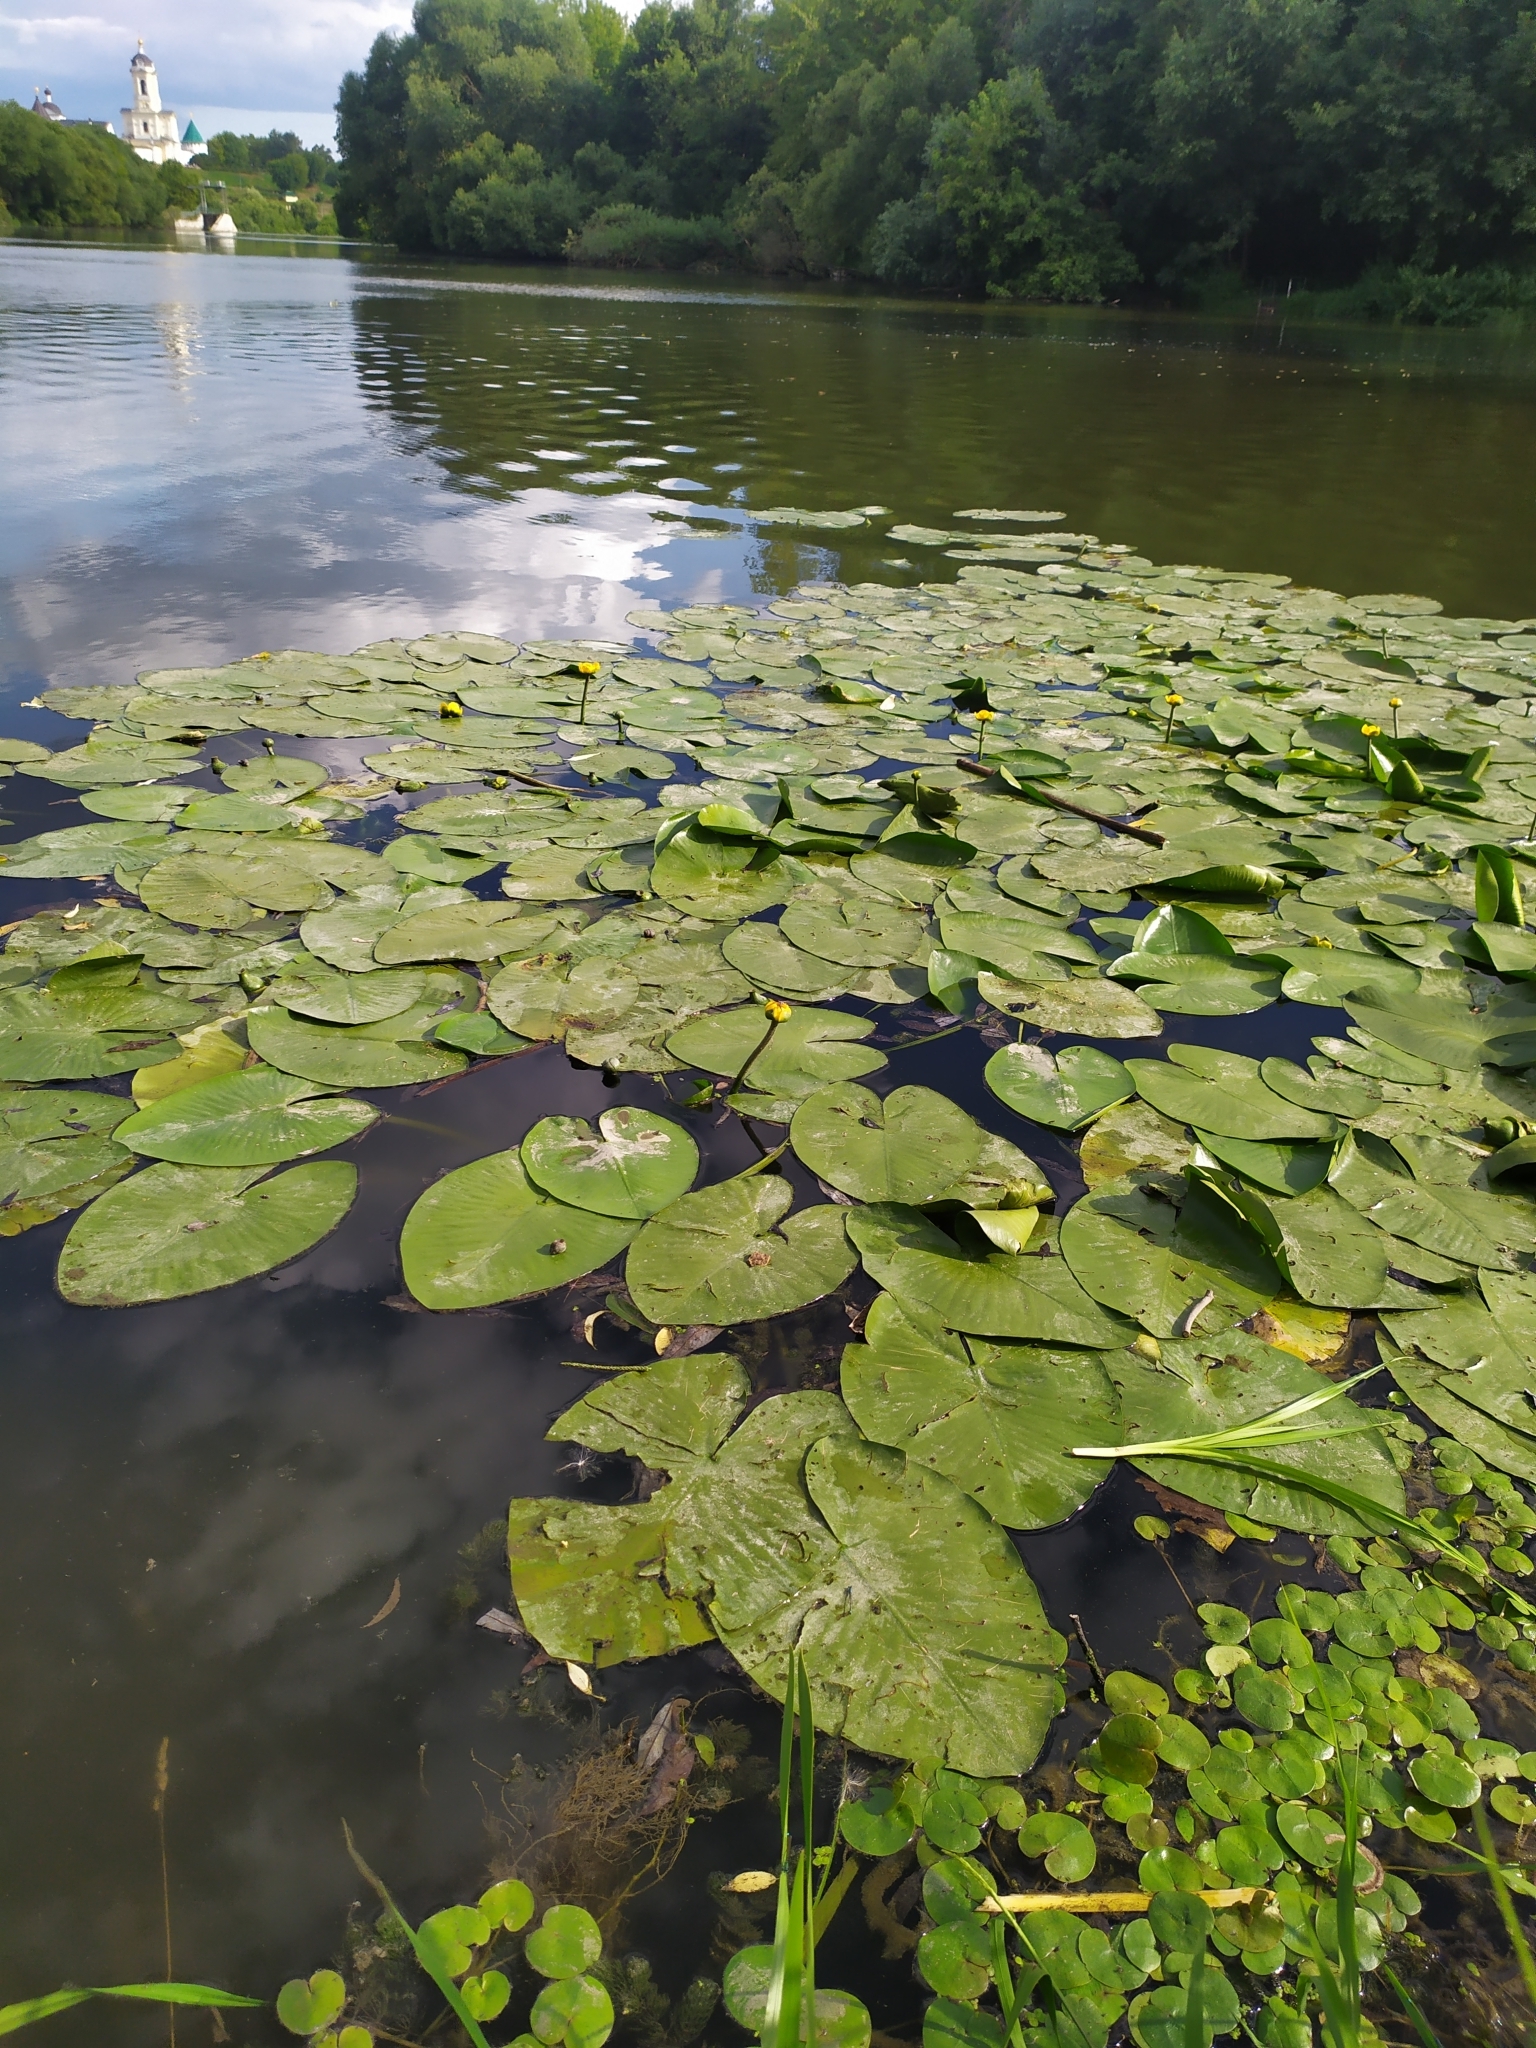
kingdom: Plantae
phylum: Tracheophyta
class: Magnoliopsida
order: Nymphaeales
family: Nymphaeaceae
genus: Nuphar
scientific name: Nuphar lutea
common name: Yellow water-lily
